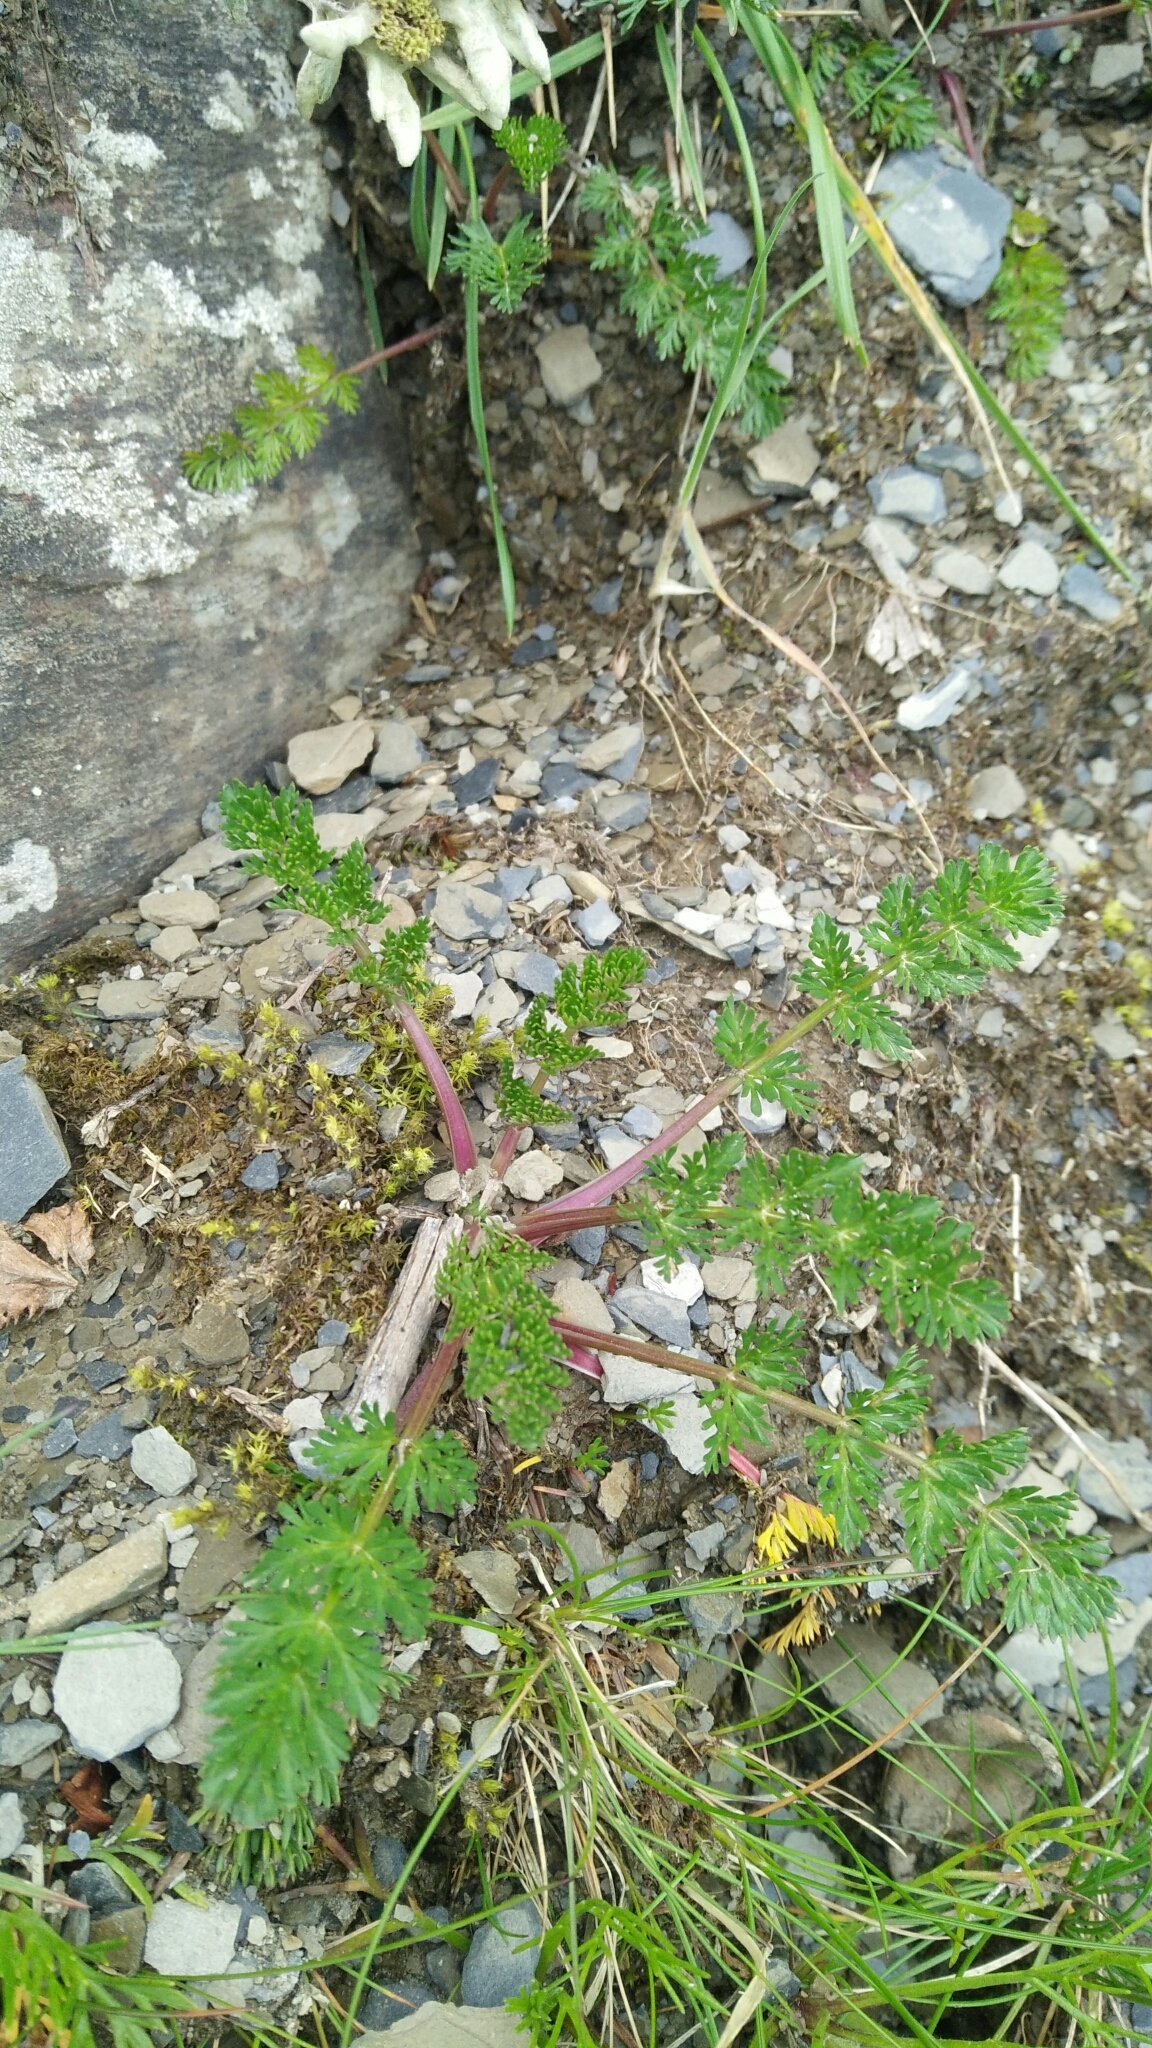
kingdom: Plantae
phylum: Tracheophyta
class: Magnoliopsida
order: Apiales
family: Apiaceae
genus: Chaerophyllum
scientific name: Chaerophyllum taiwanianum
